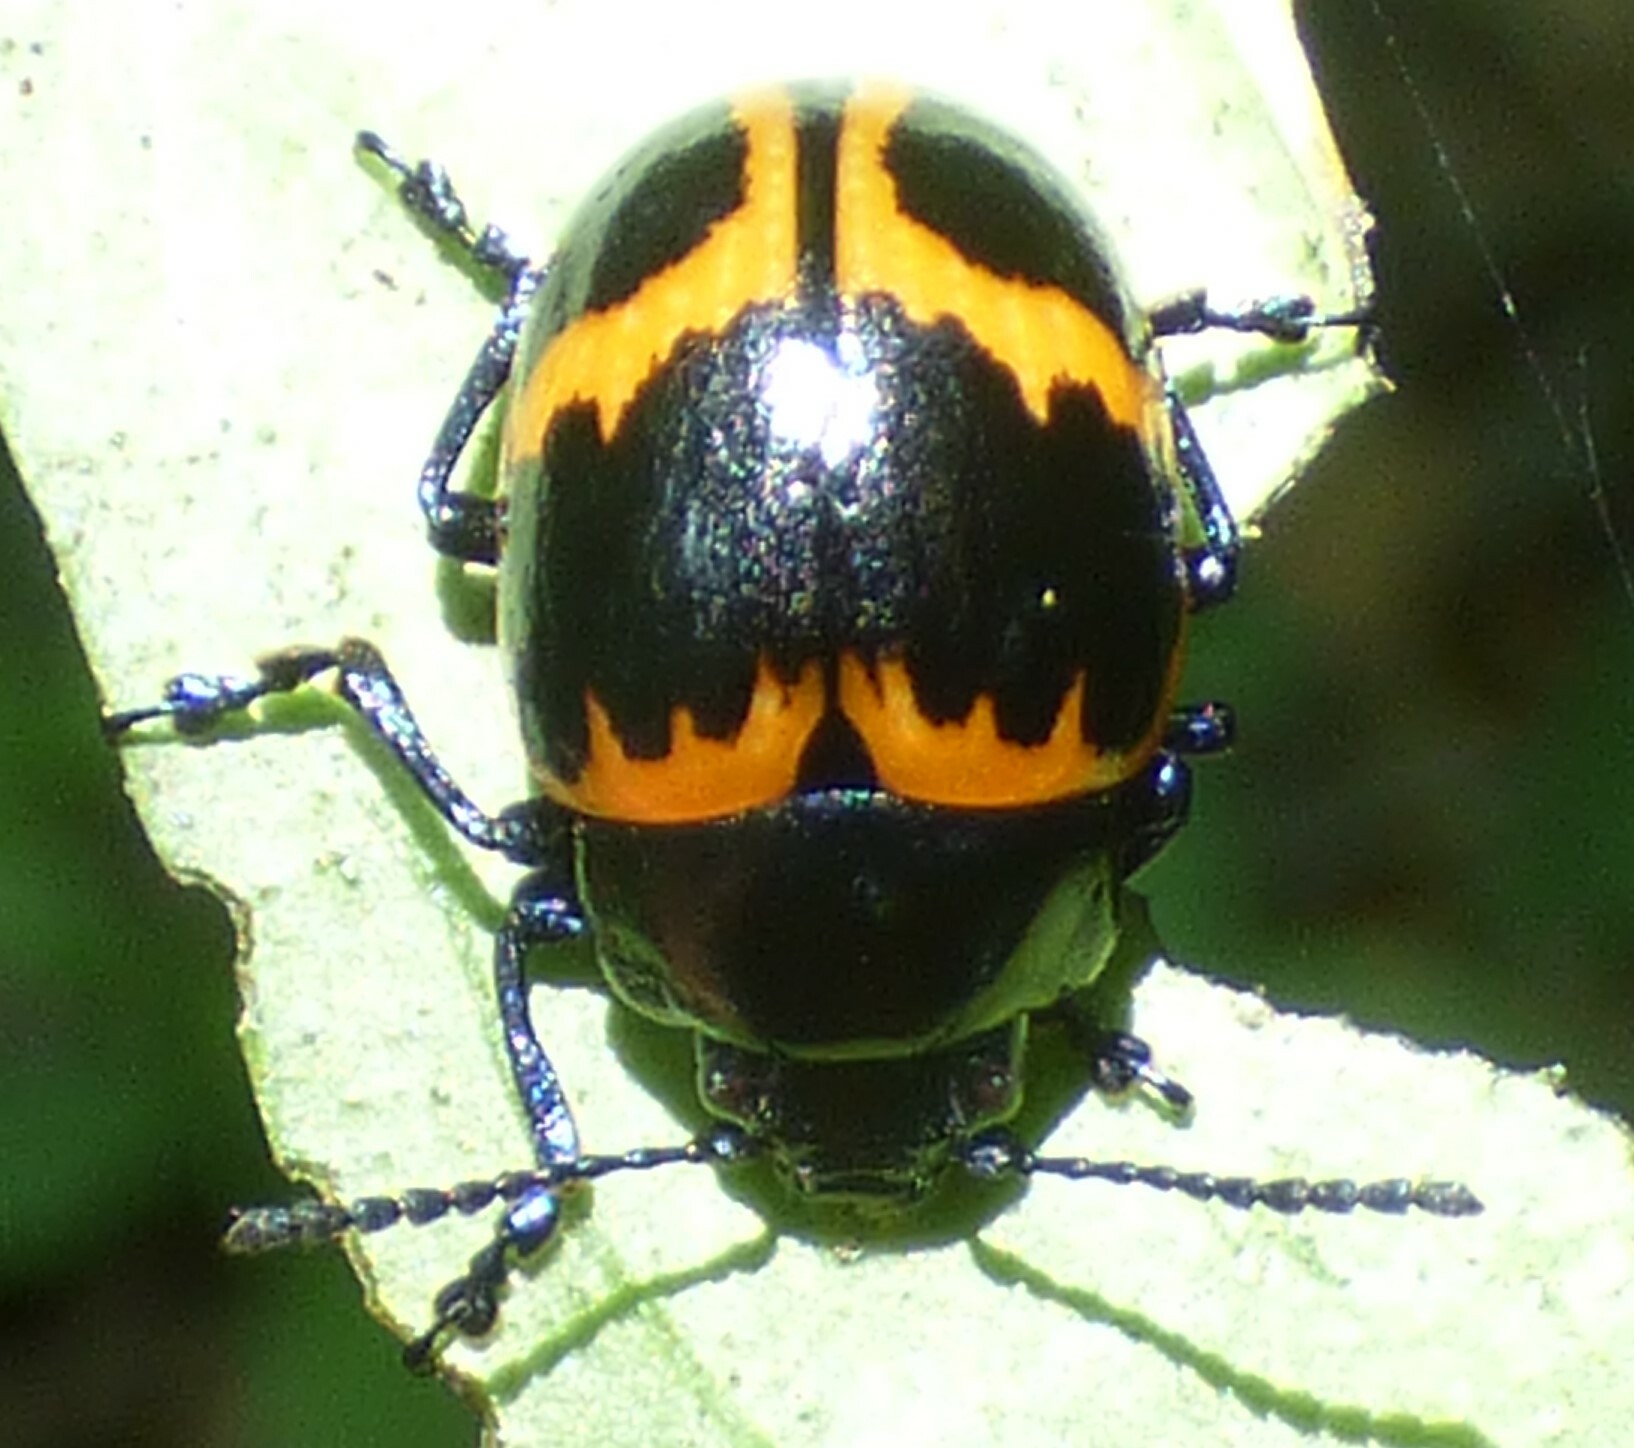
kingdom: Animalia
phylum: Arthropoda
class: Insecta
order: Coleoptera
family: Chrysomelidae
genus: Labidomera
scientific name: Labidomera clivicollis
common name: Swamp milkweed leaf beetle
